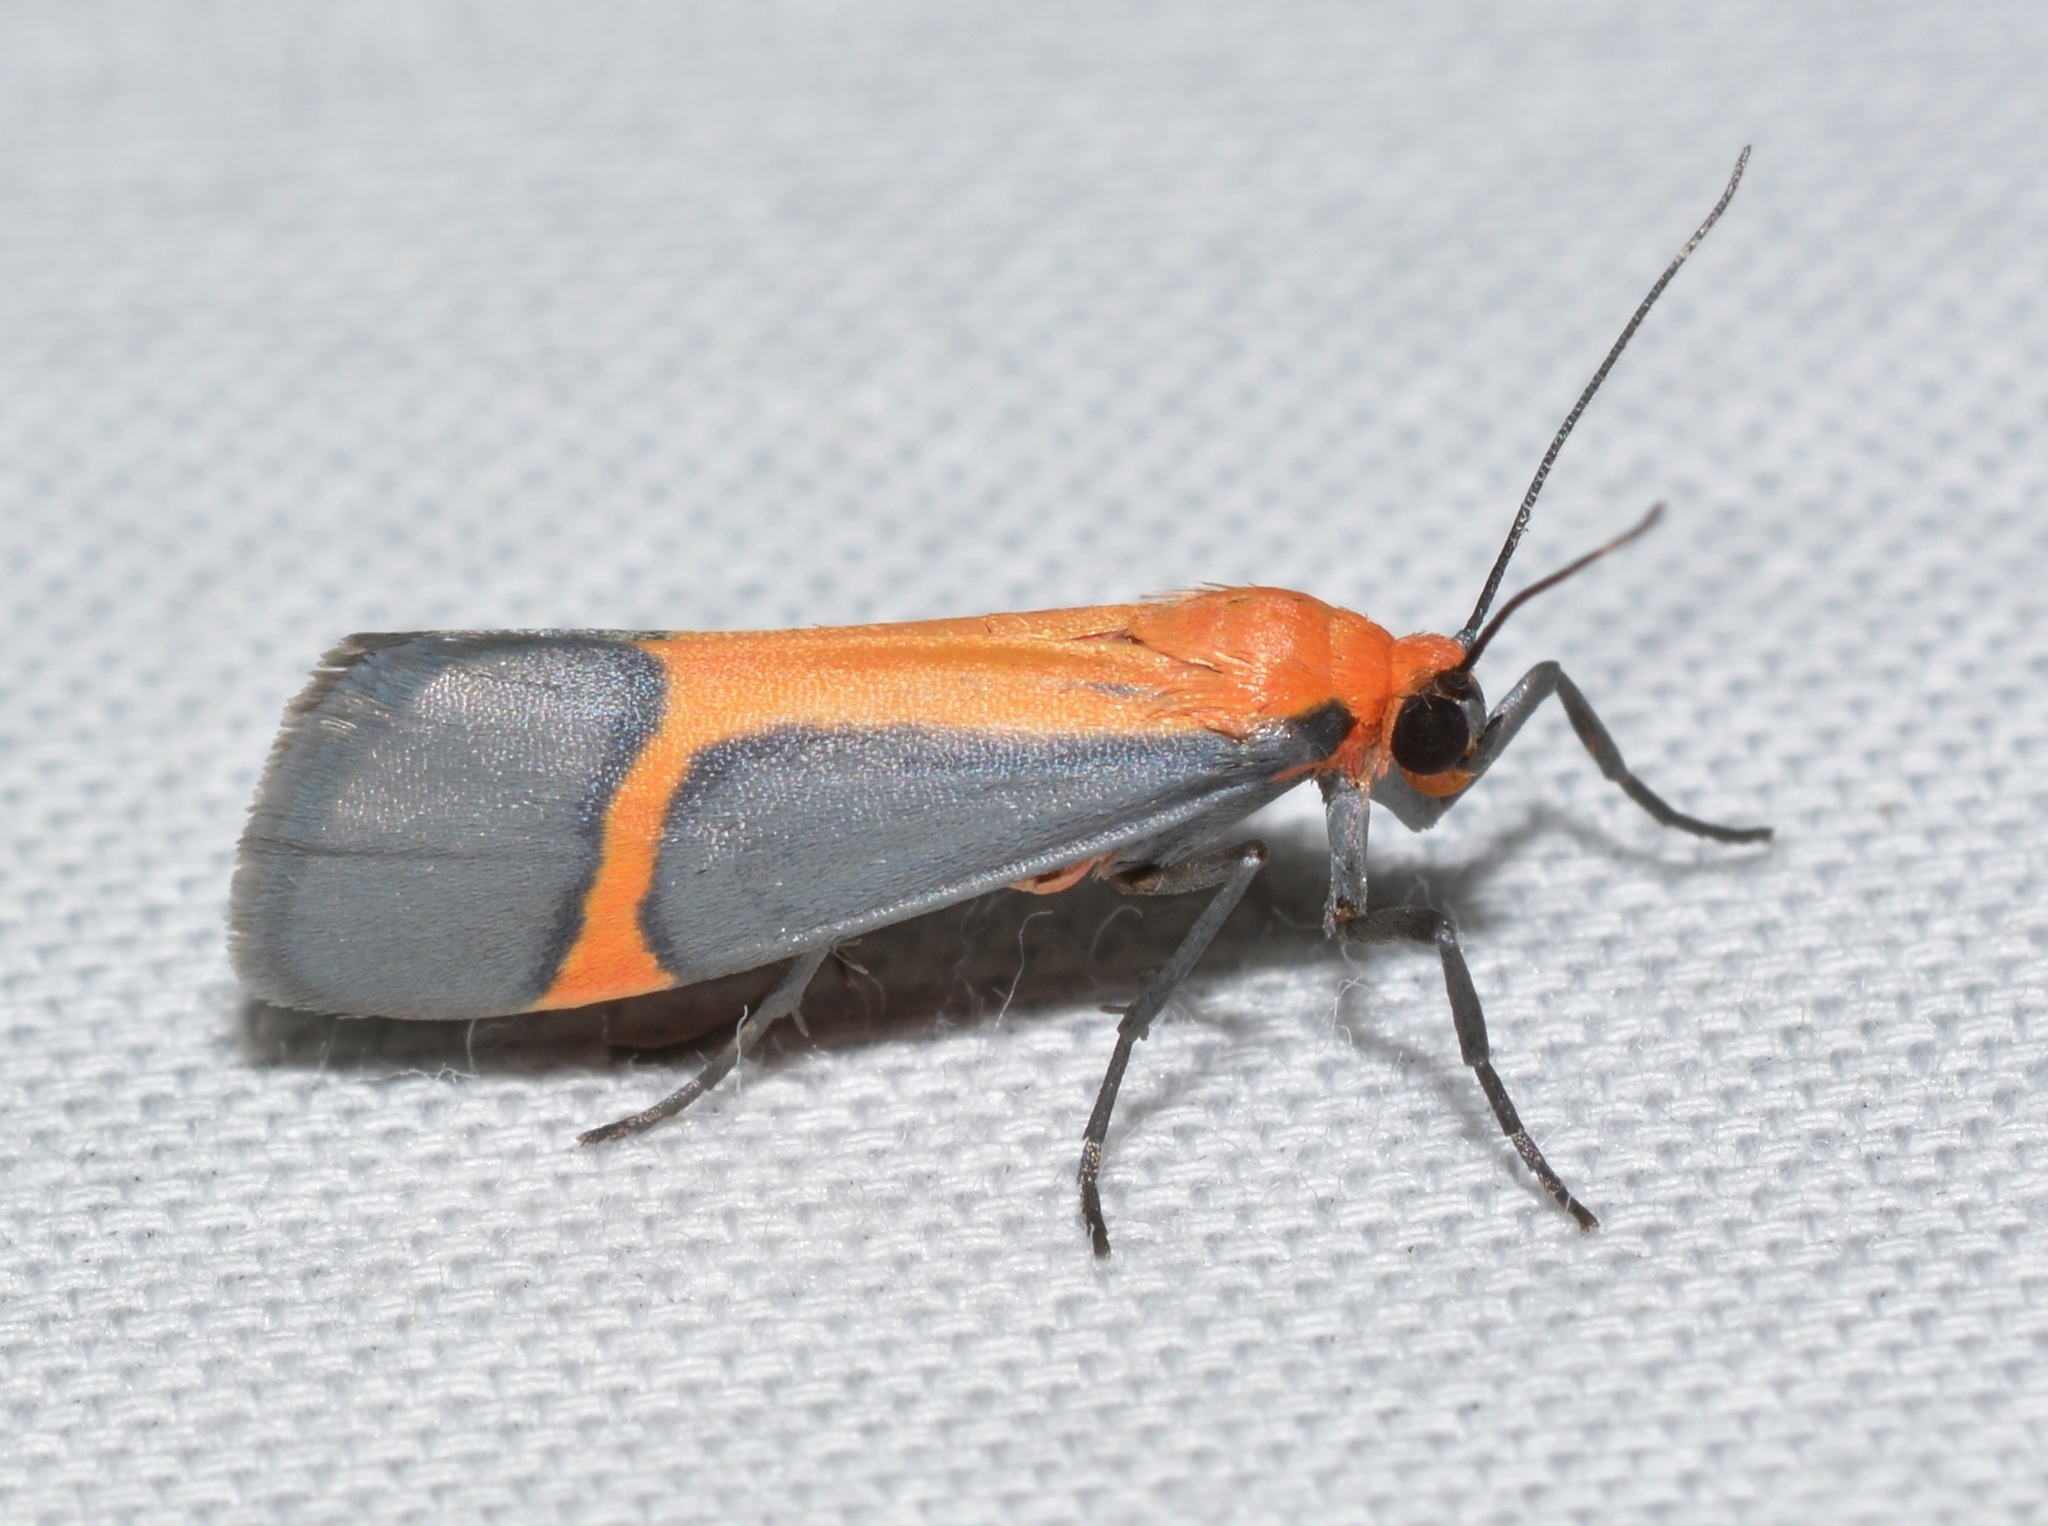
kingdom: Animalia
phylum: Arthropoda
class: Insecta
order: Lepidoptera
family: Erebidae
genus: Cisthene
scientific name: Cisthene angelus
